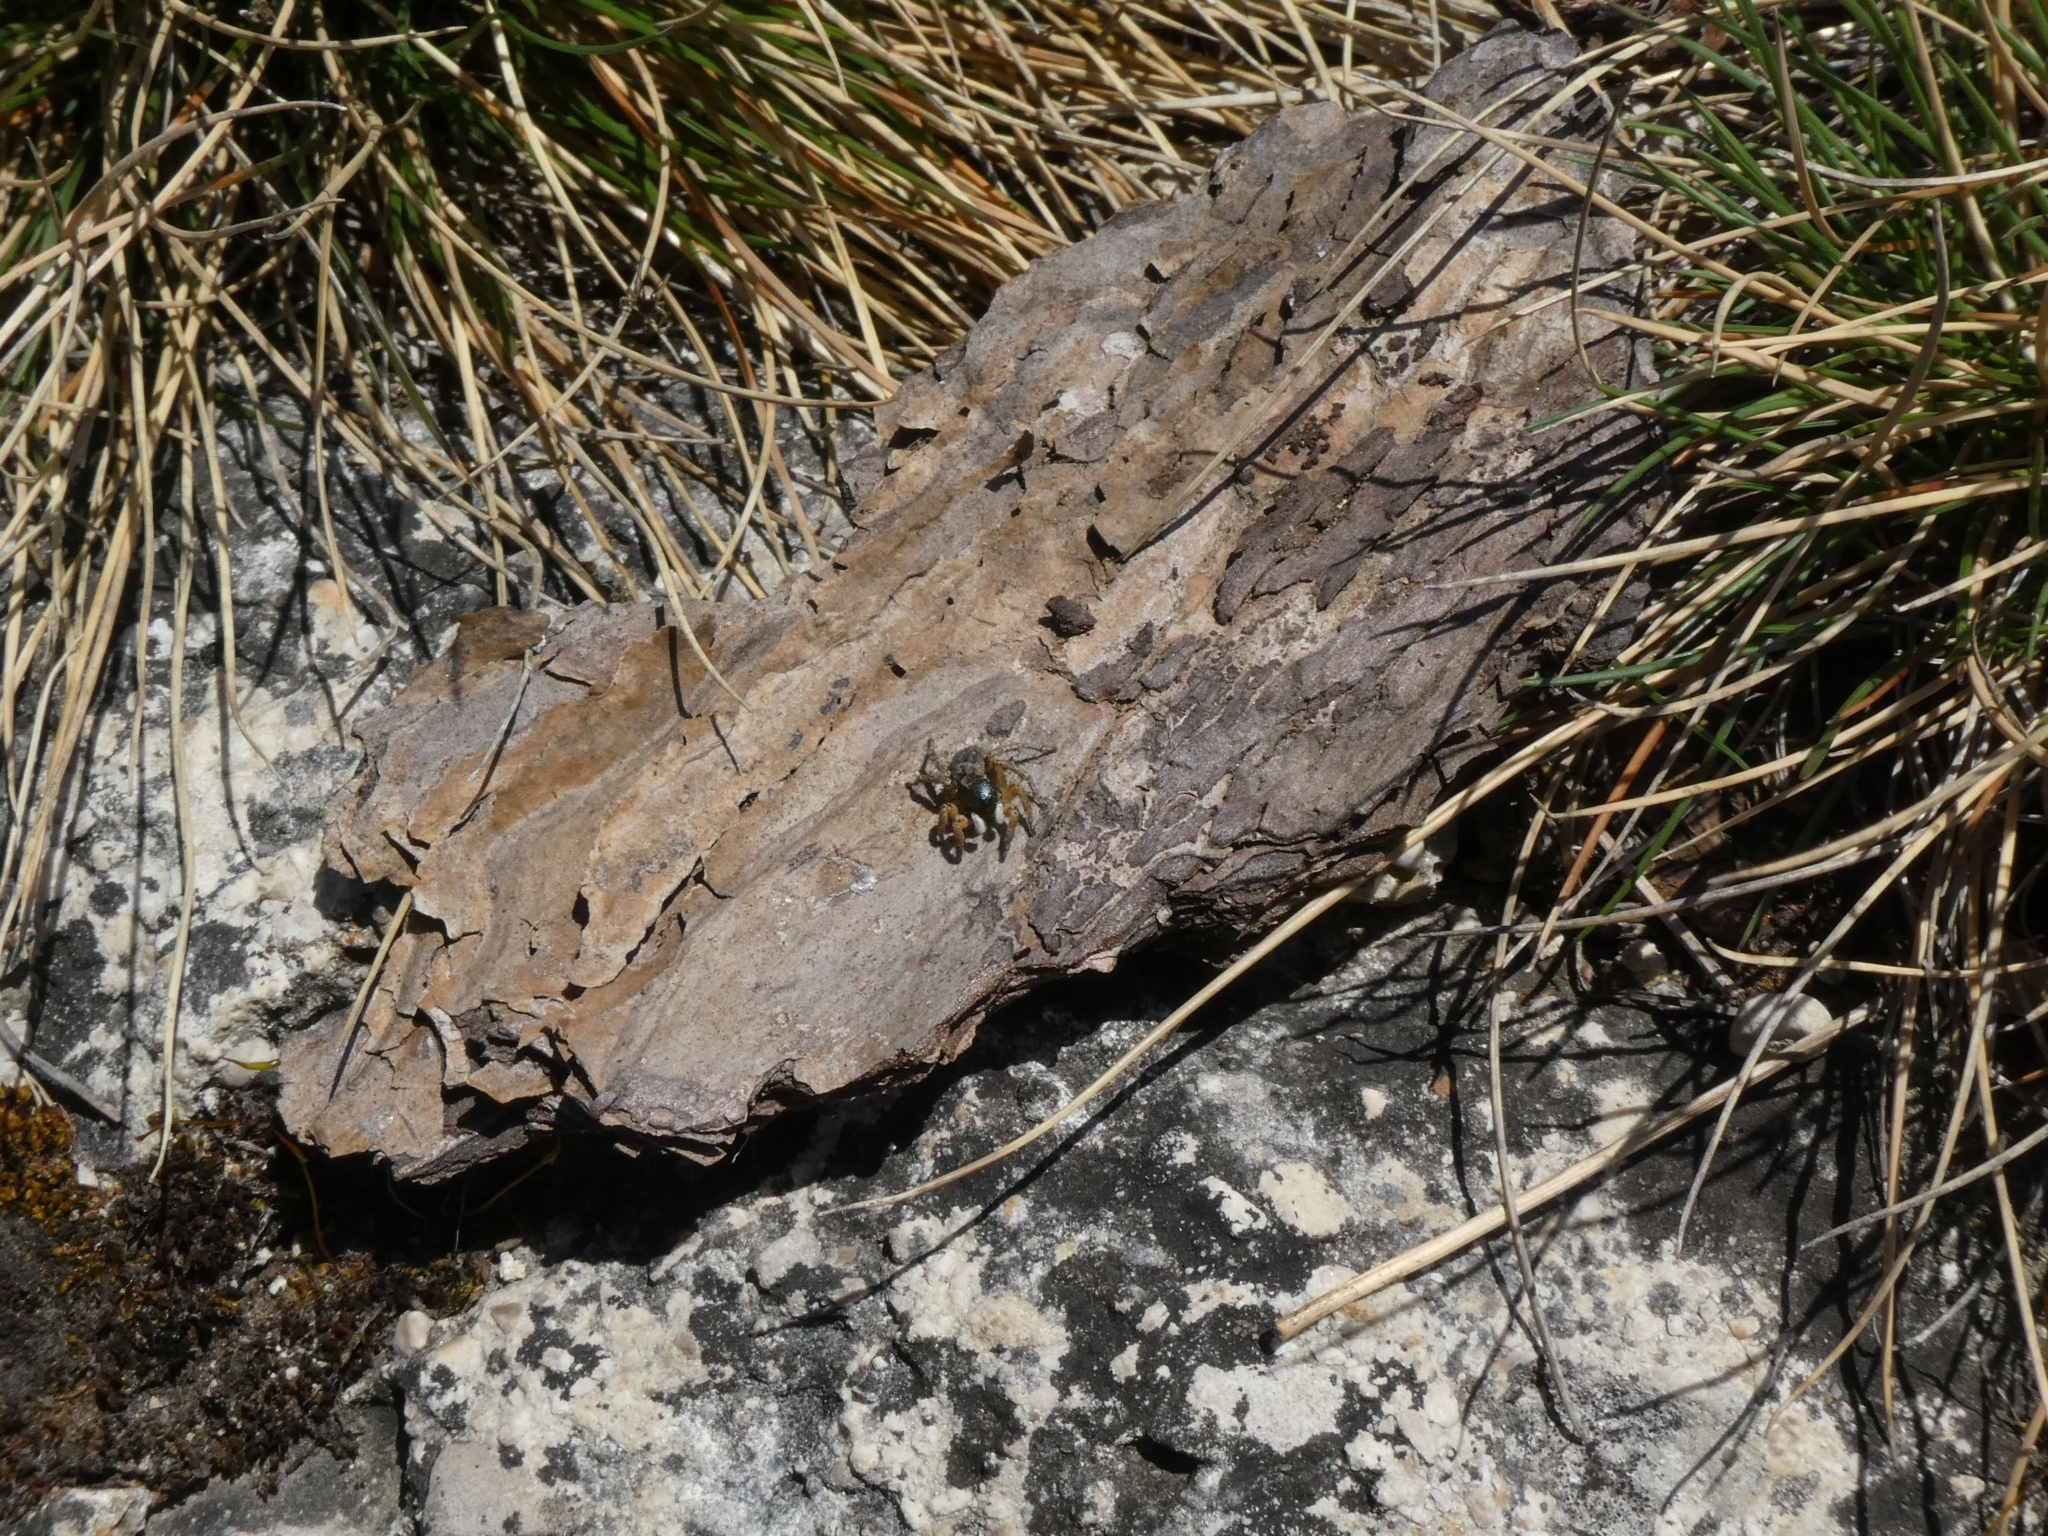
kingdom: Animalia
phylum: Arthropoda
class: Arachnida
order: Araneae
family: Salticidae
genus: Asianellus
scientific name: Asianellus festivus
